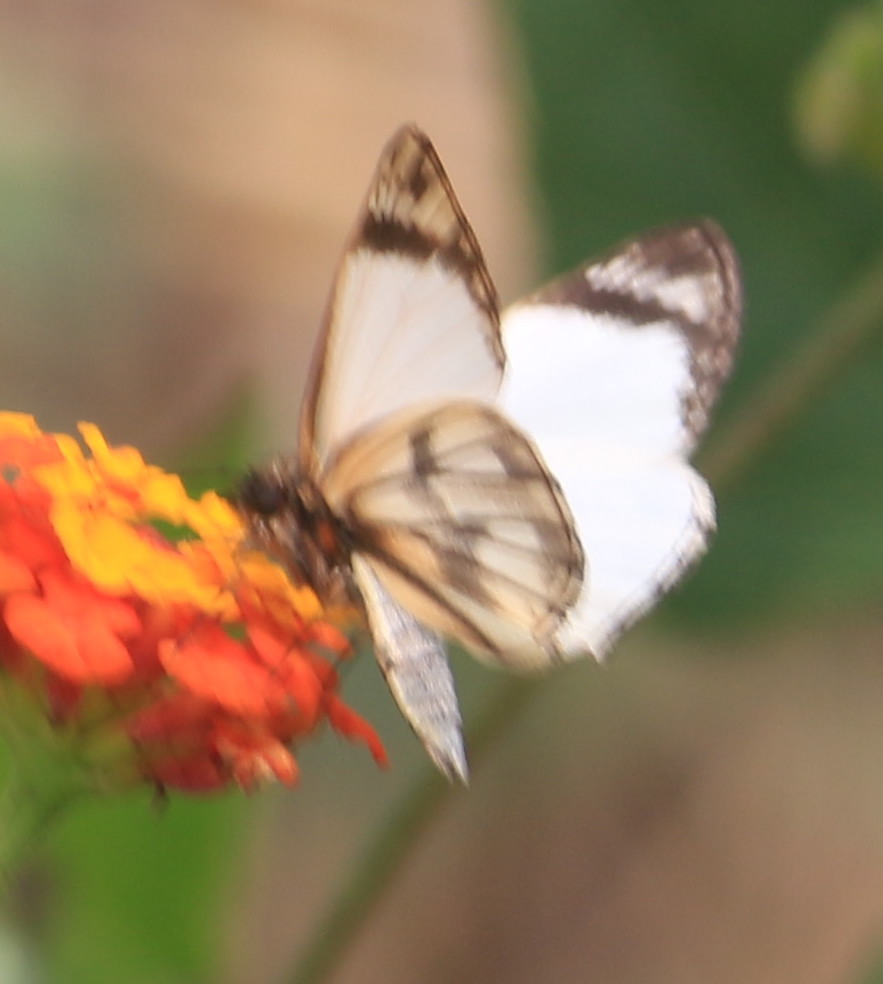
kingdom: Animalia
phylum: Arthropoda
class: Insecta
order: Lepidoptera
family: Hesperiidae
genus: Heliopetes
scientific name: Heliopetes alana
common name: Alana white-skipper
